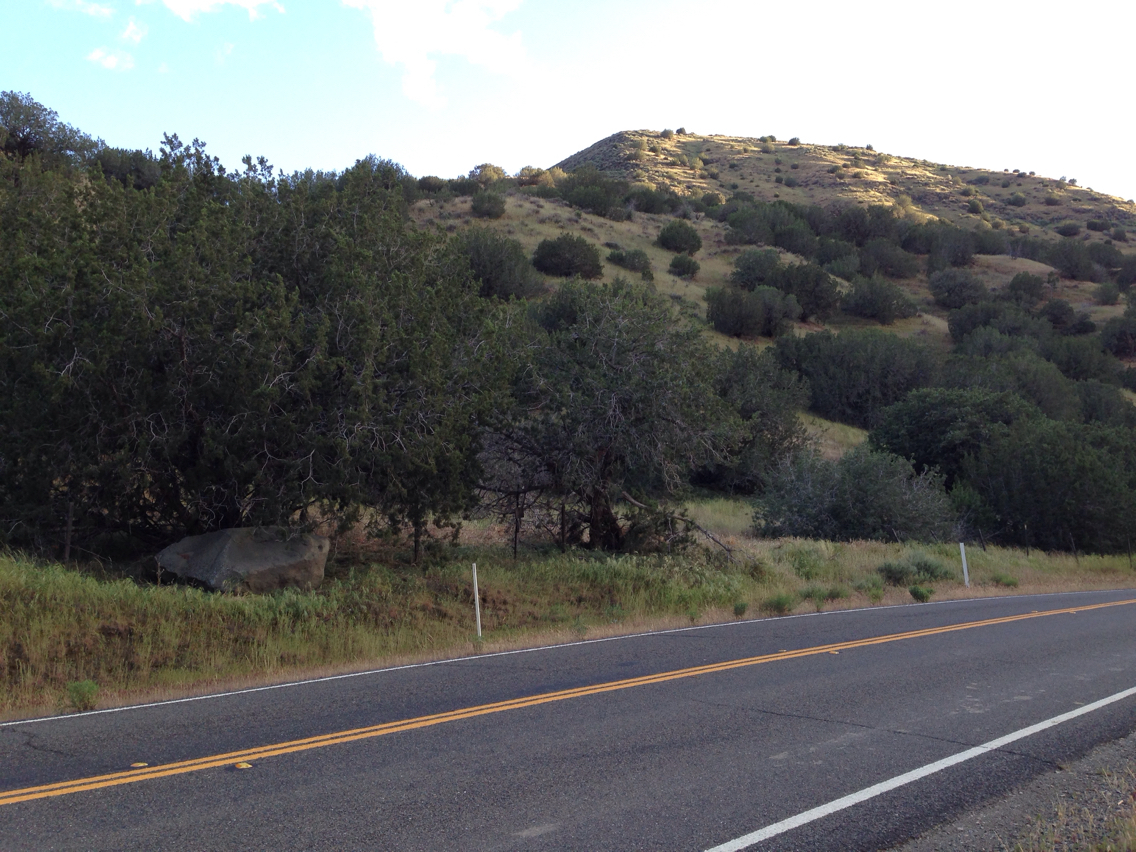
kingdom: Plantae
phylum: Tracheophyta
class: Pinopsida
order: Pinales
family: Cupressaceae
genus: Juniperus
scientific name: Juniperus californica
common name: California juniper
